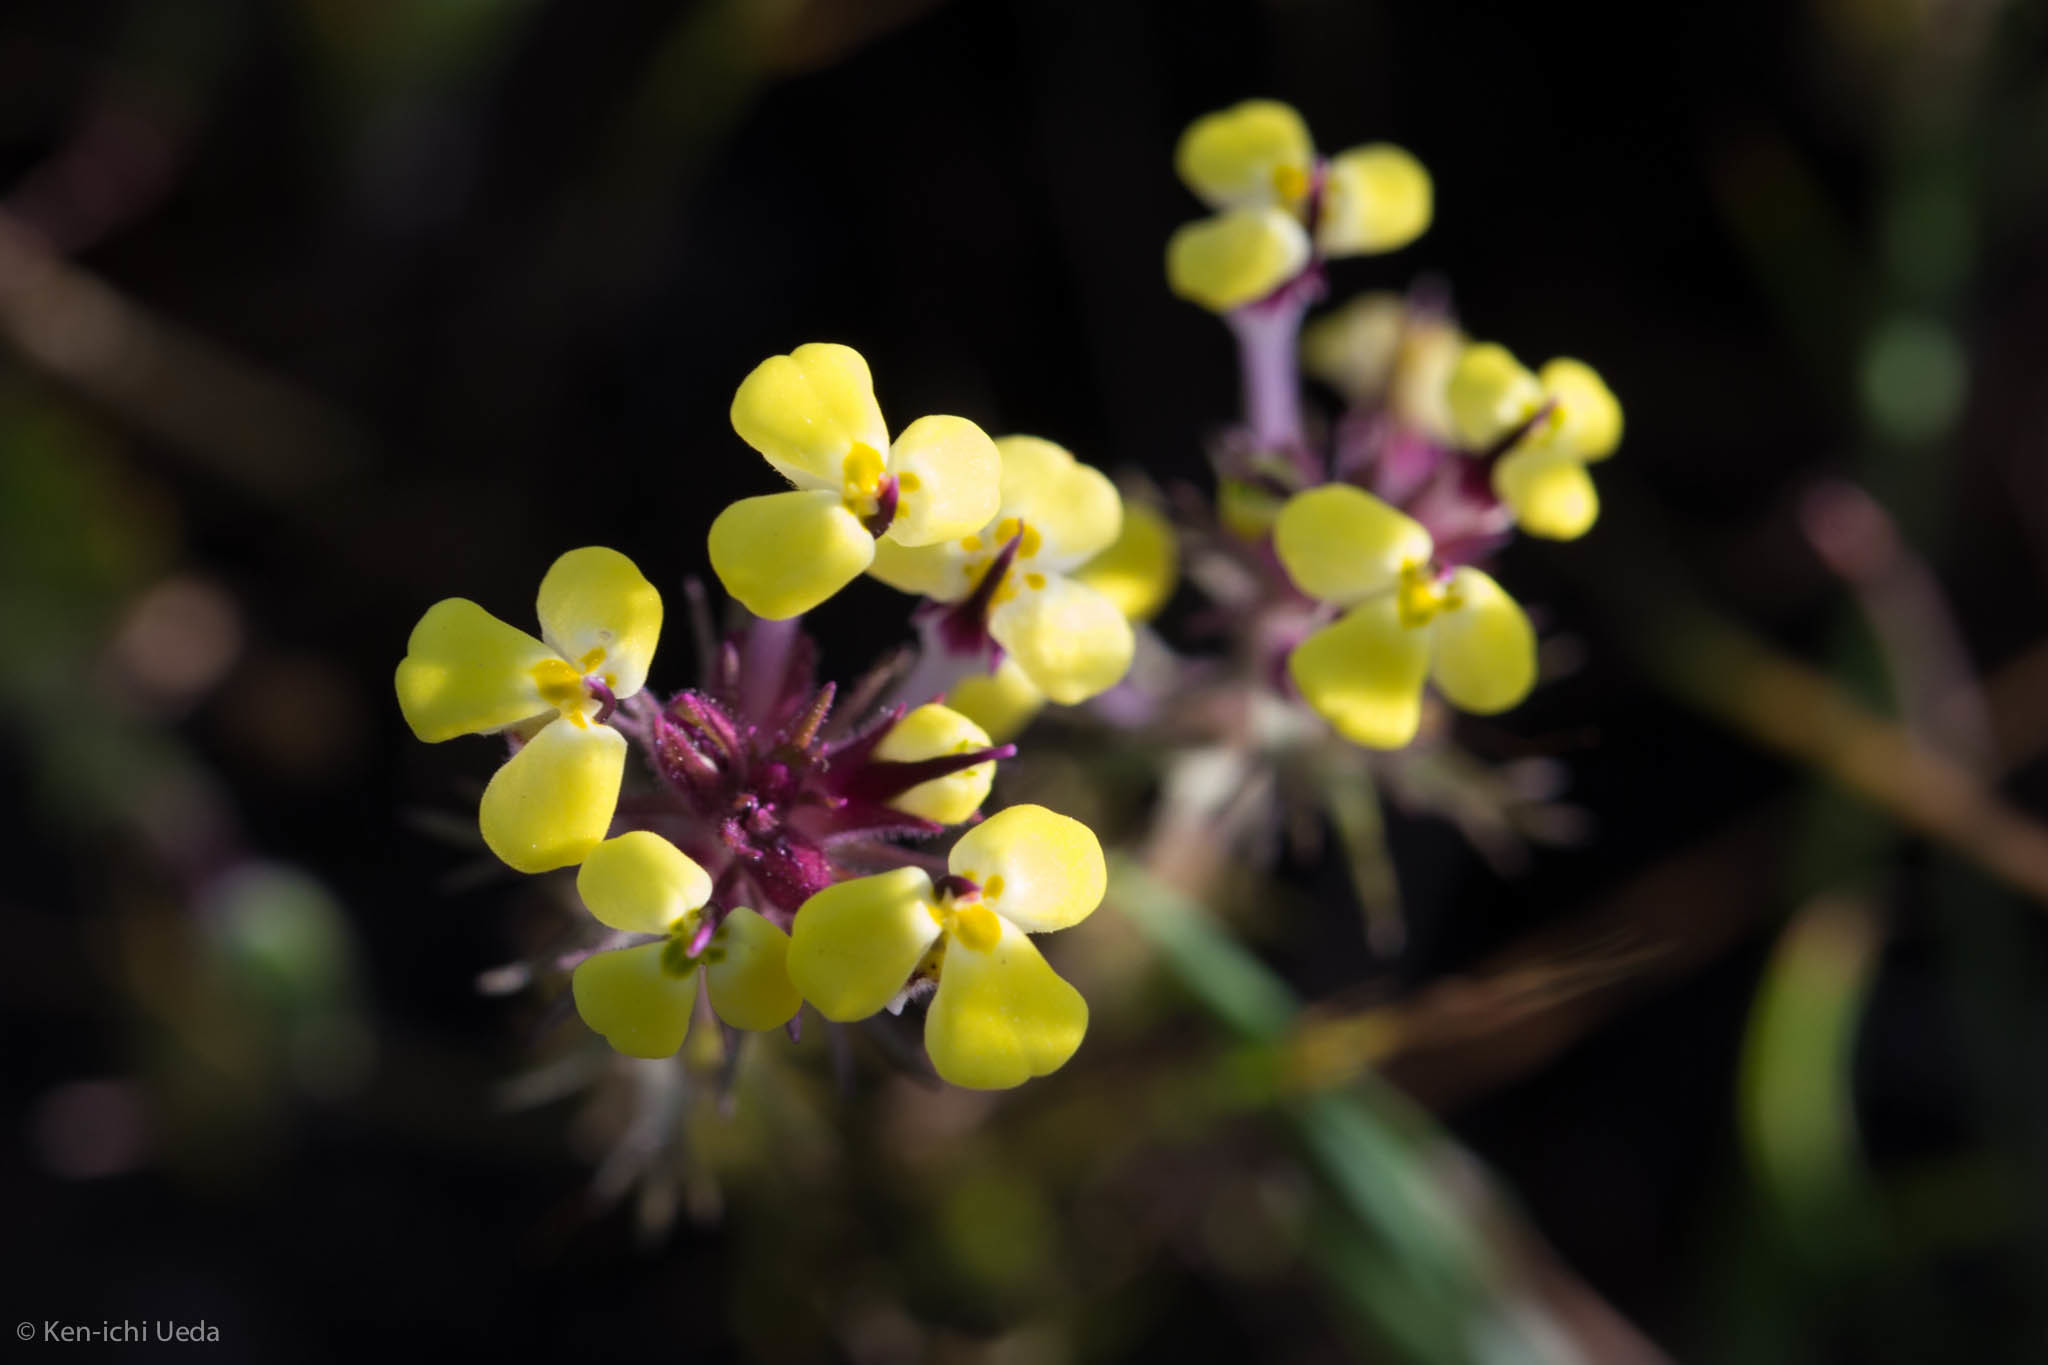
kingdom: Plantae
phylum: Tracheophyta
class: Magnoliopsida
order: Lamiales
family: Orobanchaceae
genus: Triphysaria
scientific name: Triphysaria eriantha
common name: Johnny-tuck
